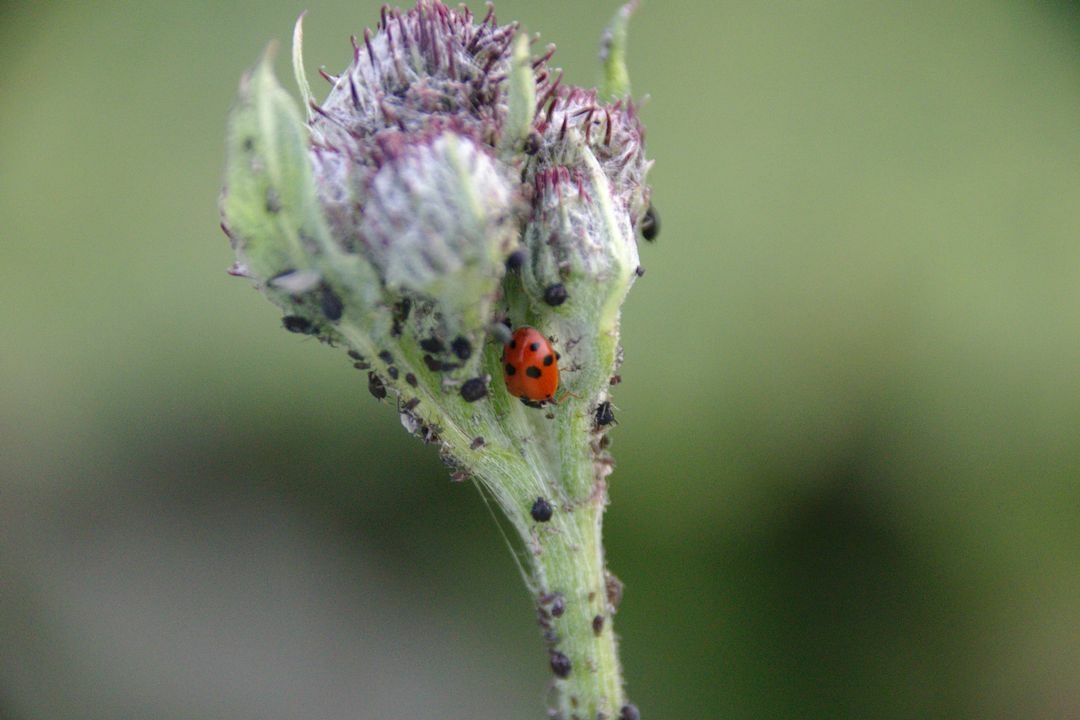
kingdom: Animalia
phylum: Arthropoda
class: Insecta
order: Coleoptera
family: Coccinellidae
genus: Hippodamia
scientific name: Hippodamia variegata
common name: Ladybird beetle
